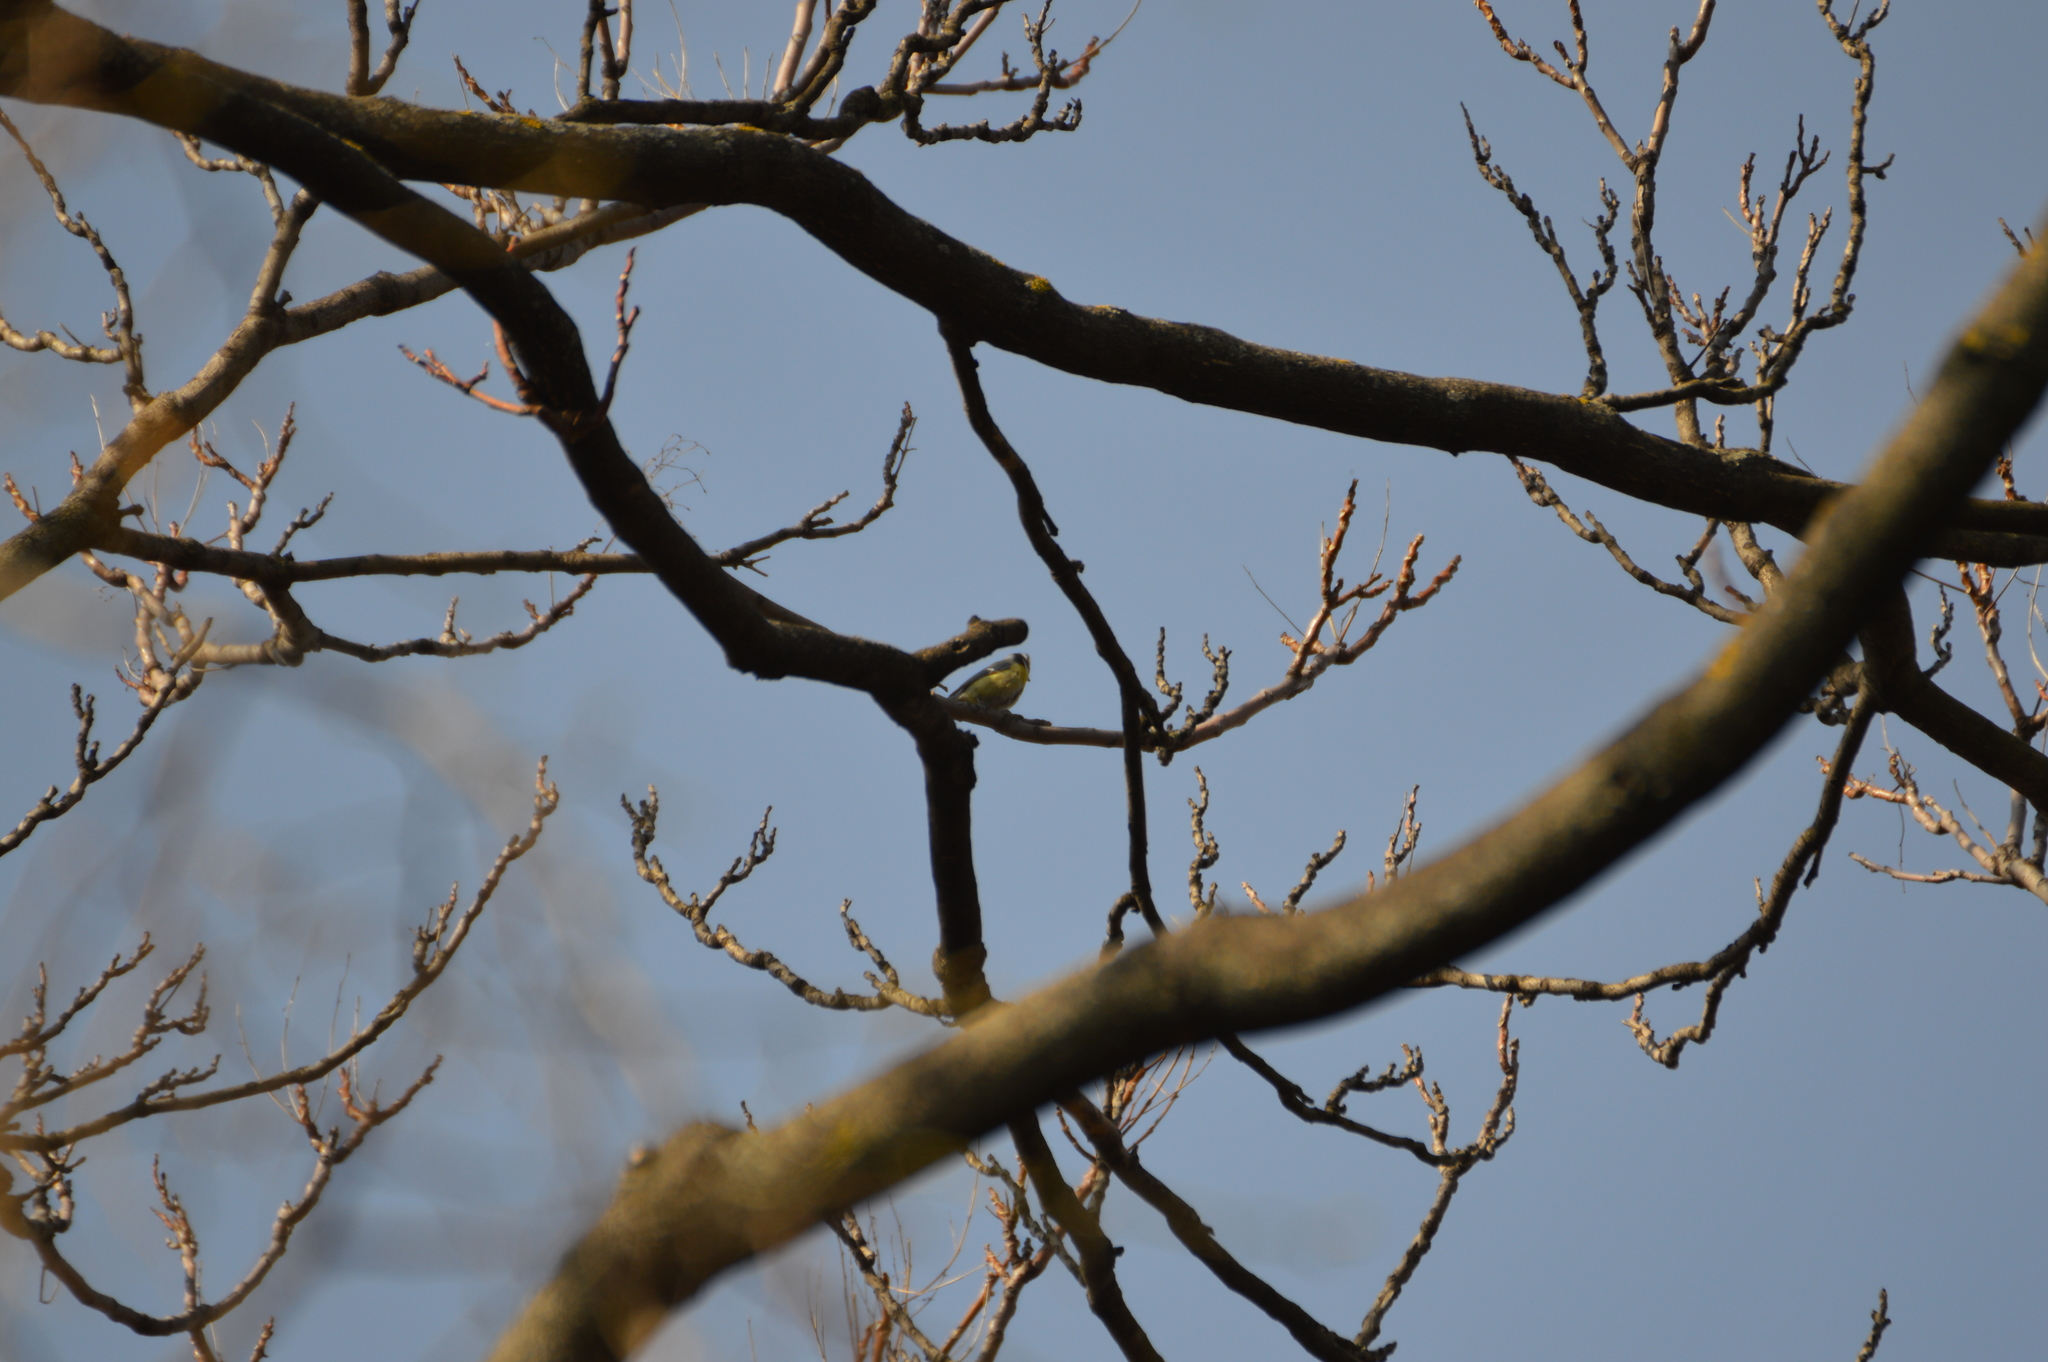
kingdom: Animalia
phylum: Chordata
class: Aves
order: Passeriformes
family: Paridae
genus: Cyanistes
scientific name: Cyanistes caeruleus
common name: Eurasian blue tit
